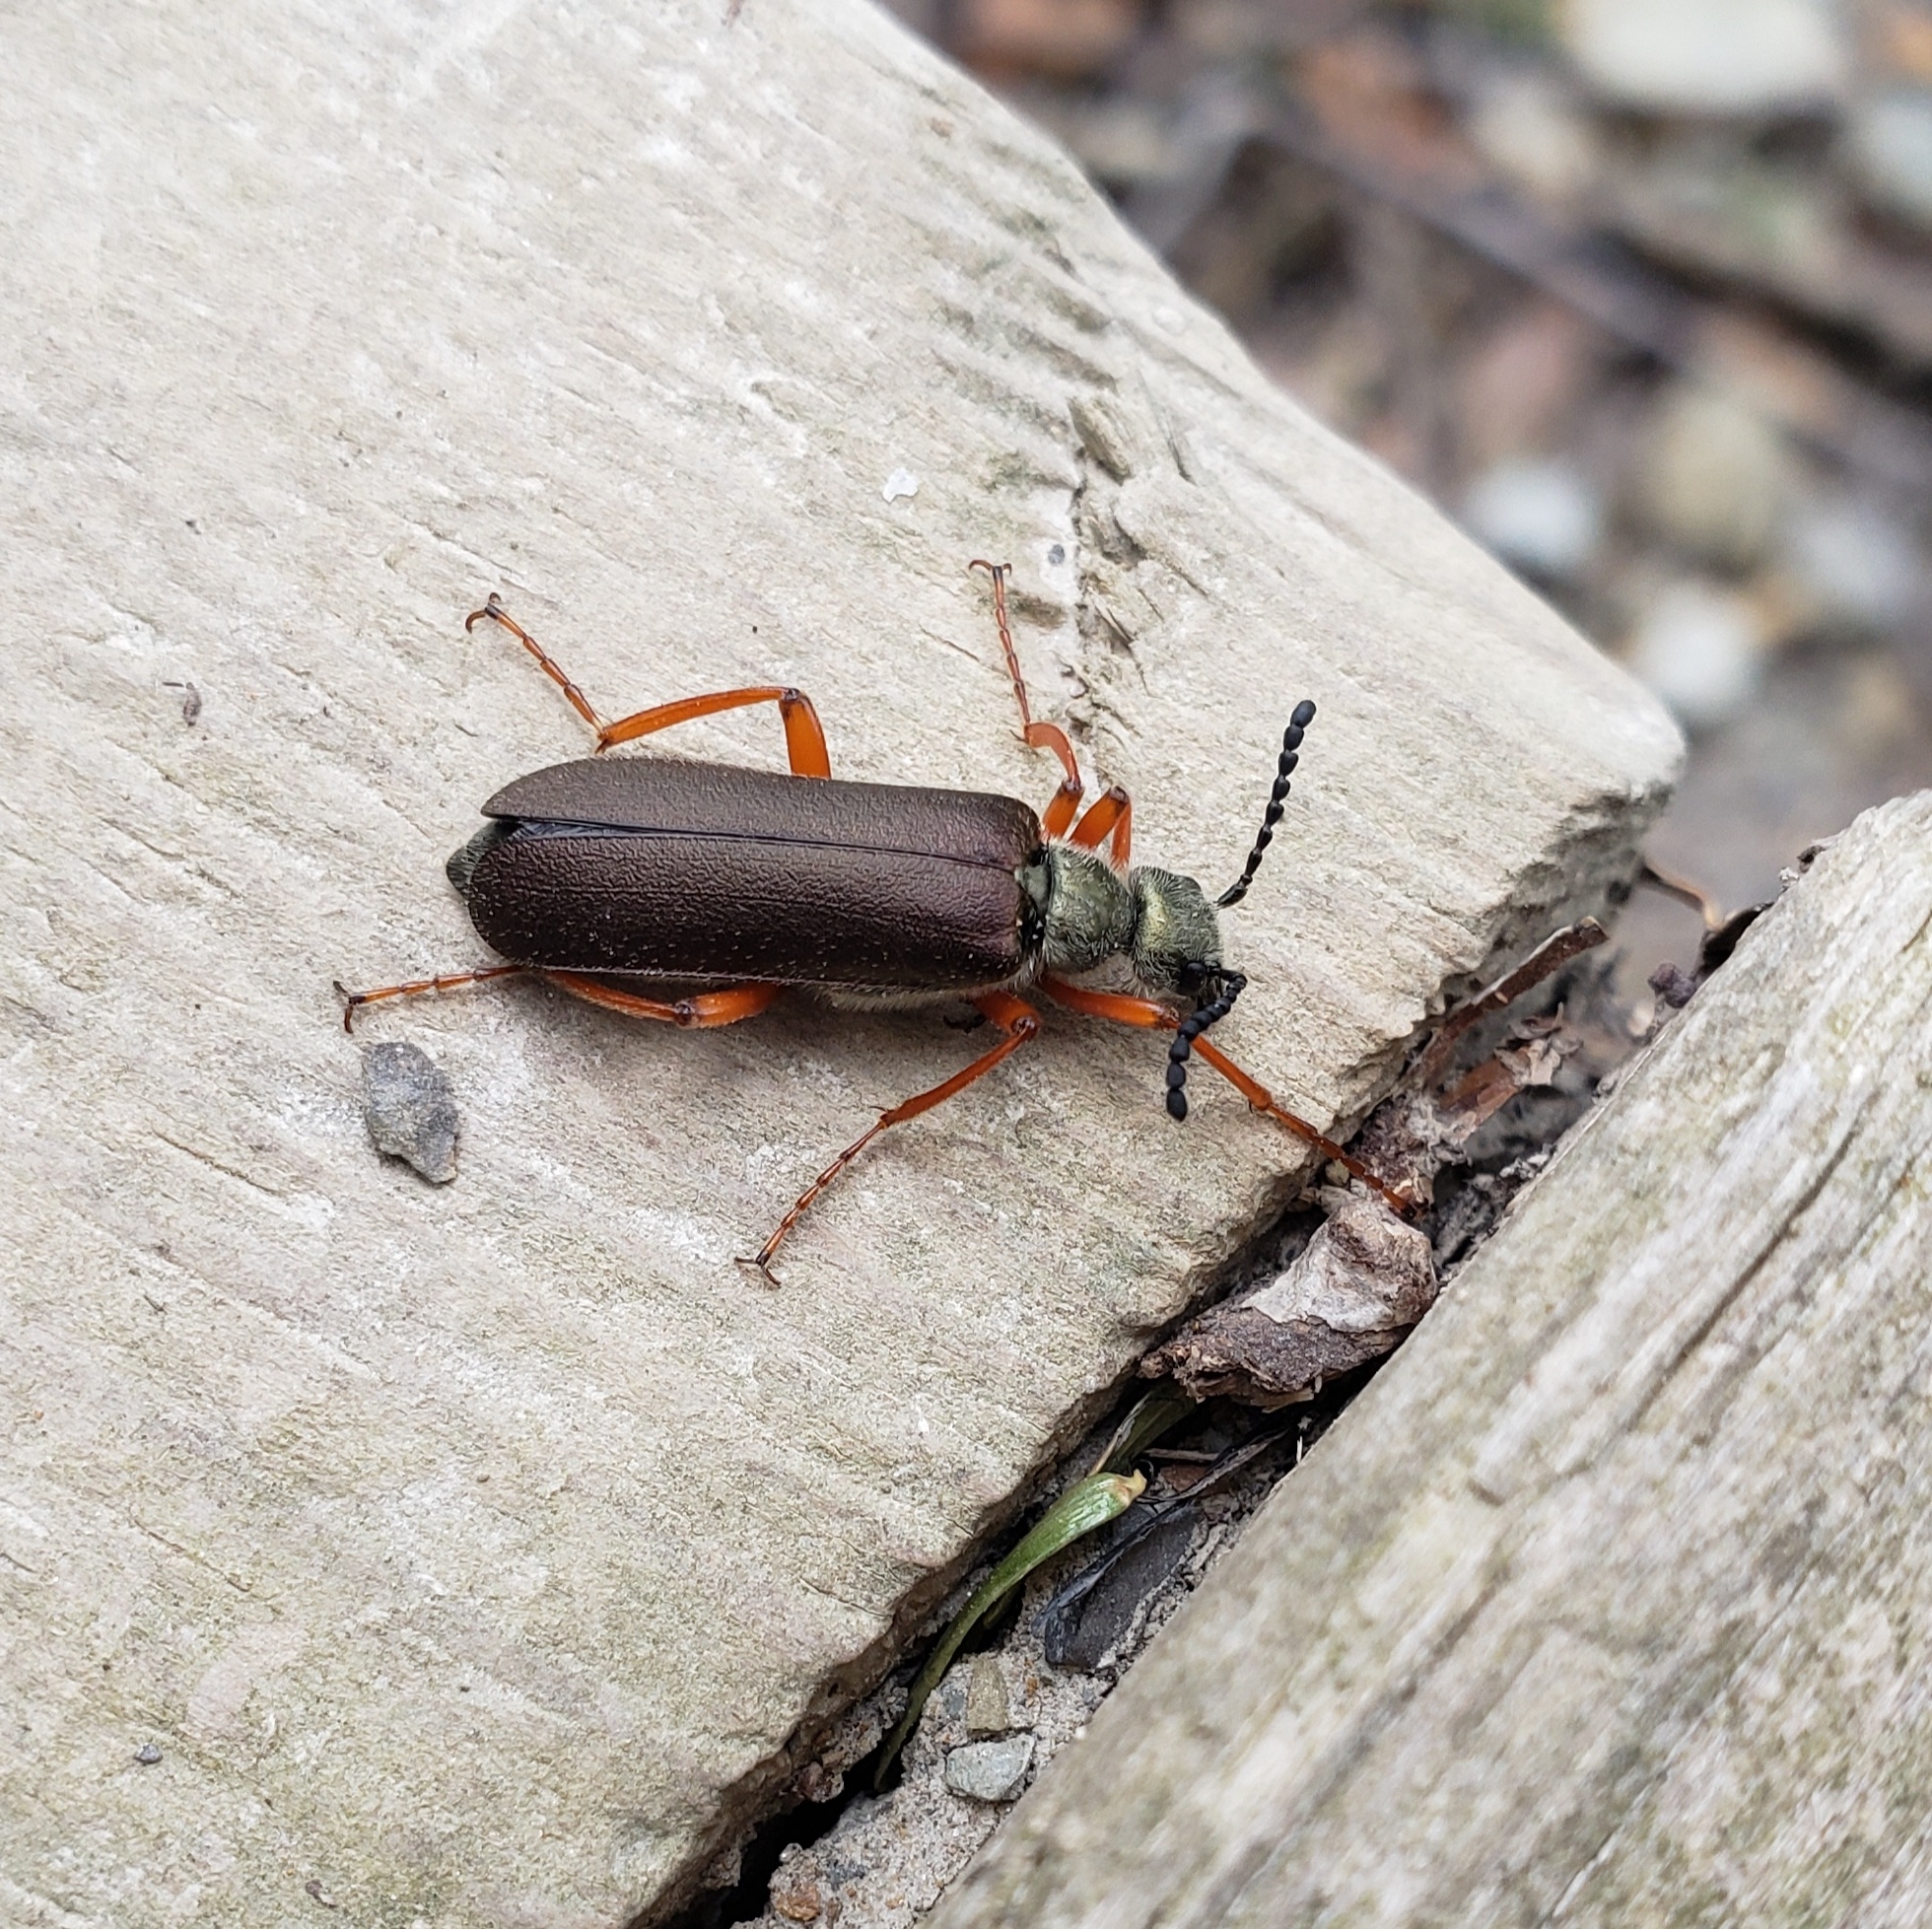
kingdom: Animalia
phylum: Arthropoda
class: Insecta
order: Coleoptera
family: Meloidae
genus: Lytta
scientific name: Lytta aenea
